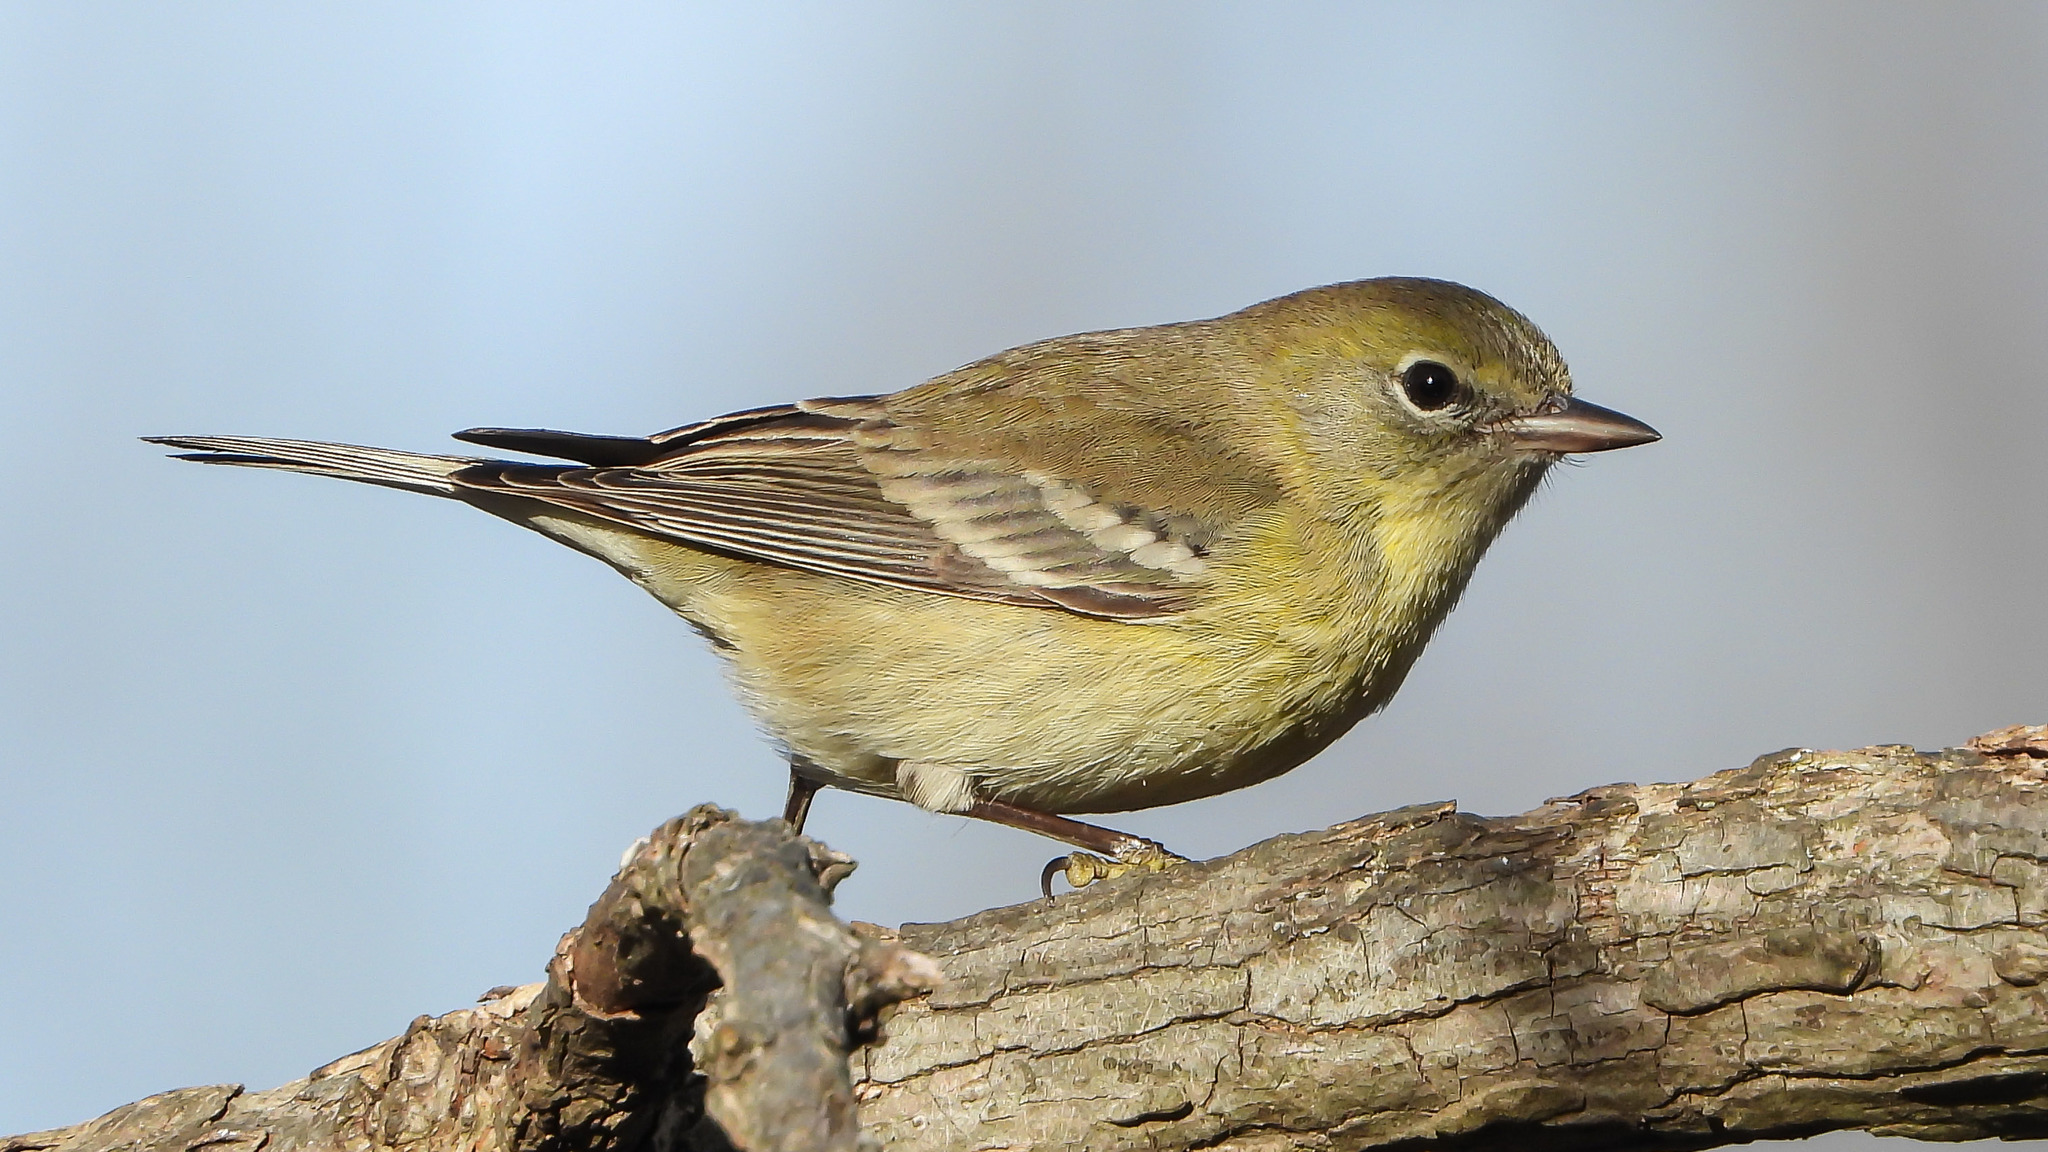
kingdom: Animalia
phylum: Chordata
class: Aves
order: Passeriformes
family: Parulidae
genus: Setophaga
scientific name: Setophaga pinus
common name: Pine warbler
